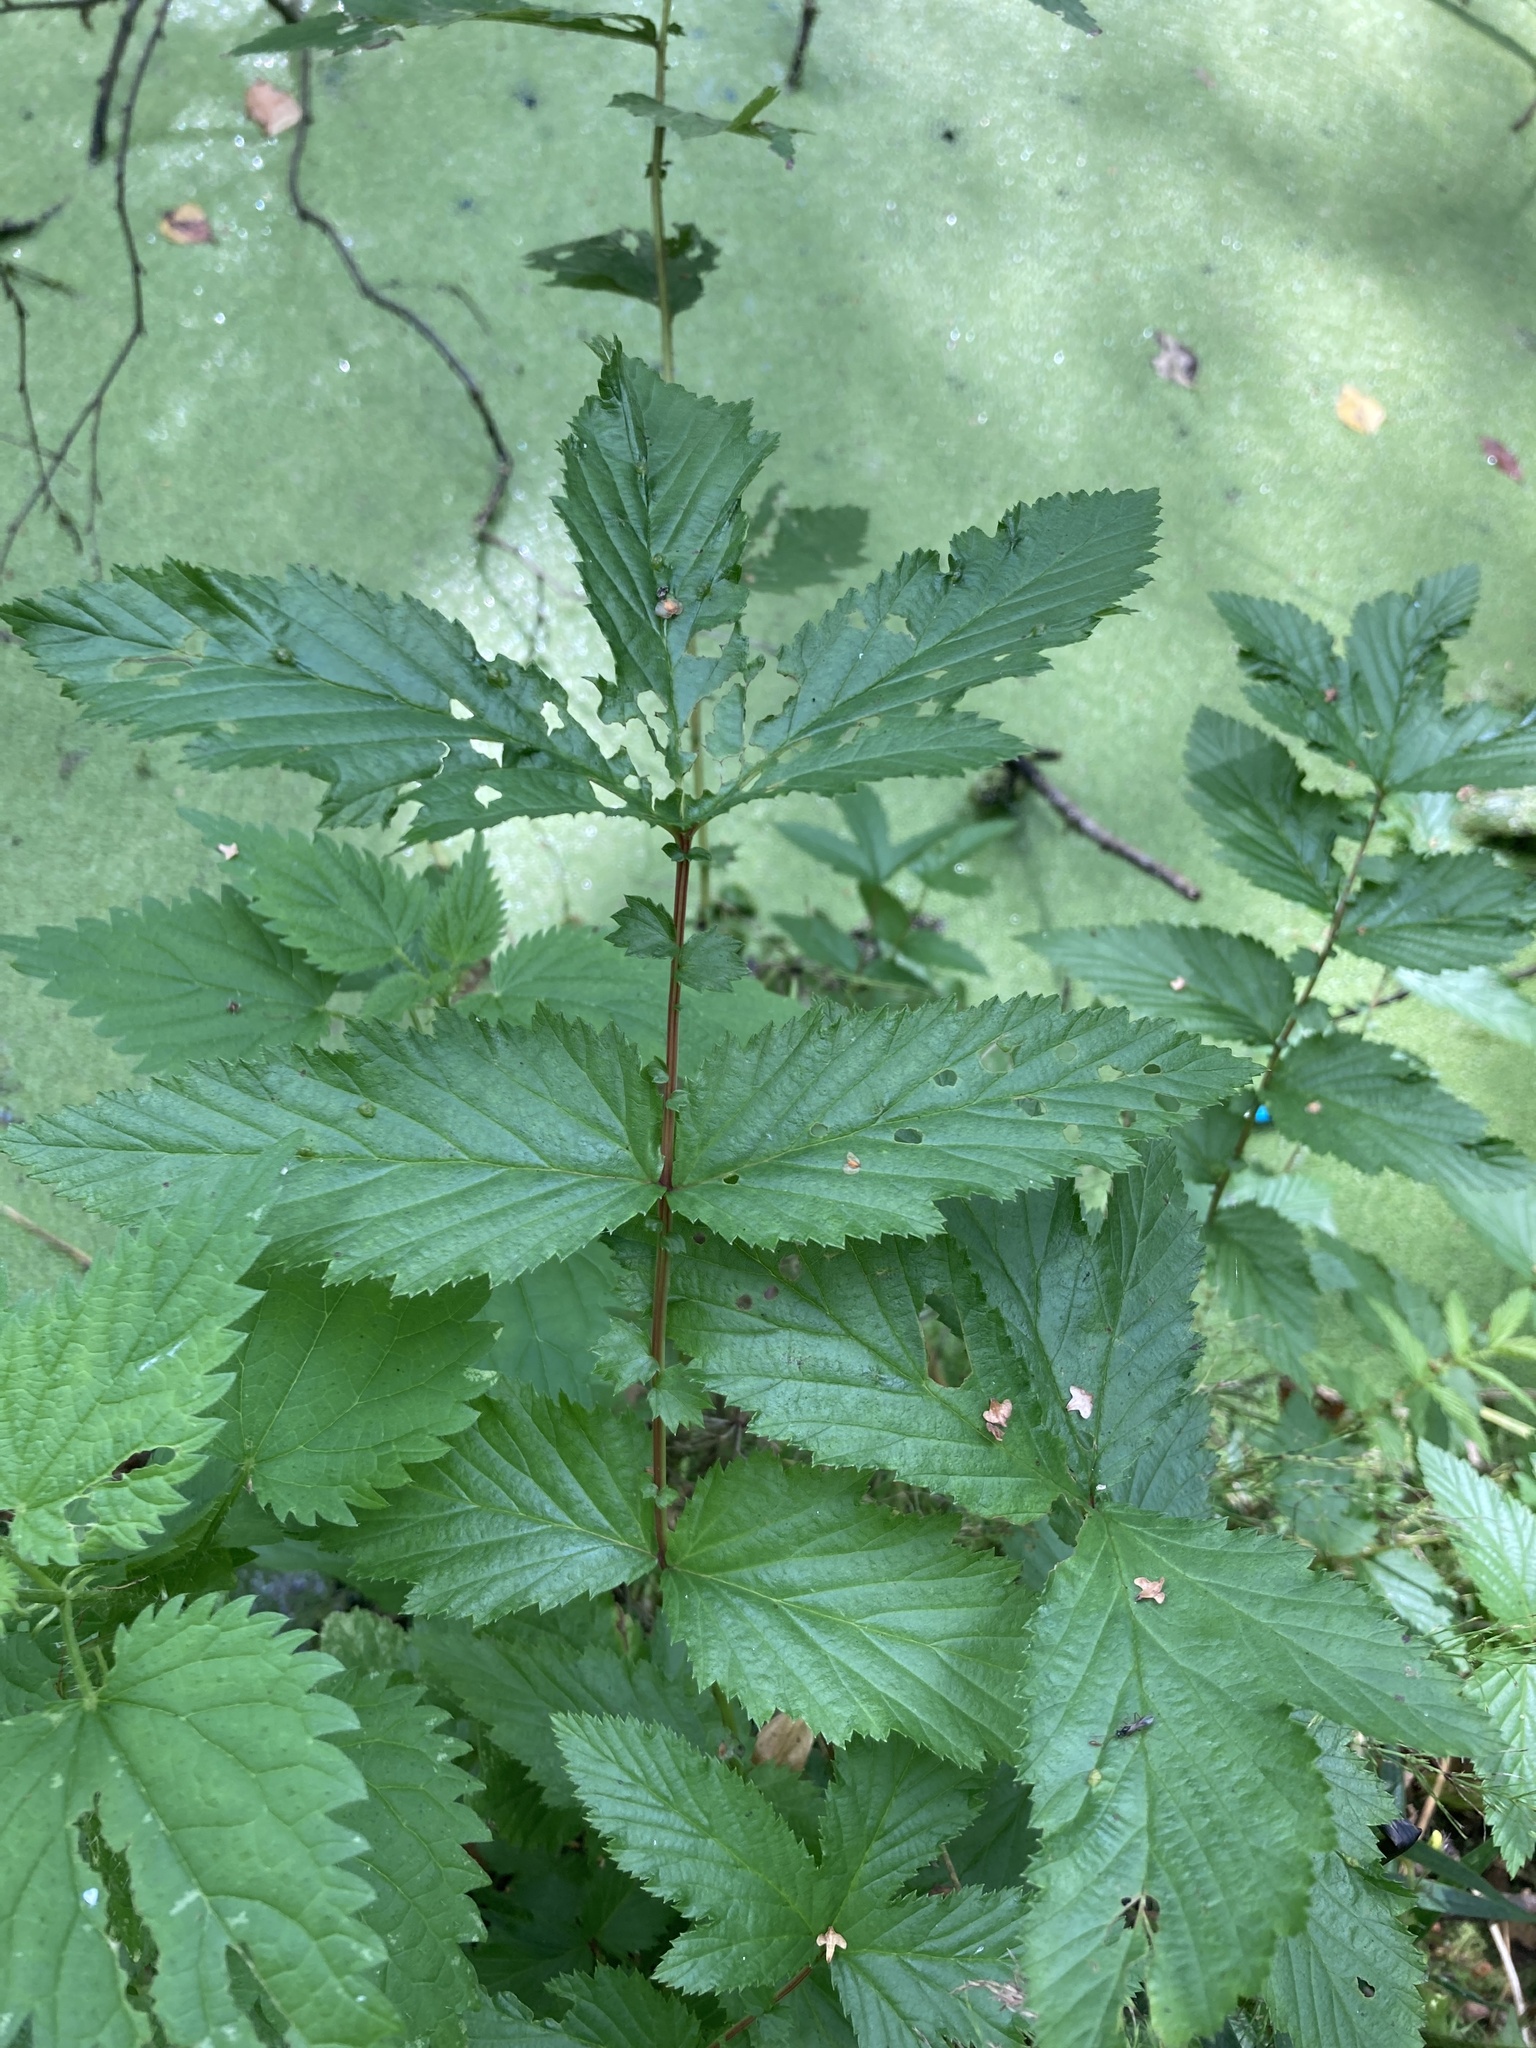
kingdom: Plantae
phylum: Tracheophyta
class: Magnoliopsida
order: Rosales
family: Rosaceae
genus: Filipendula
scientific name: Filipendula ulmaria
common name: Meadowsweet
